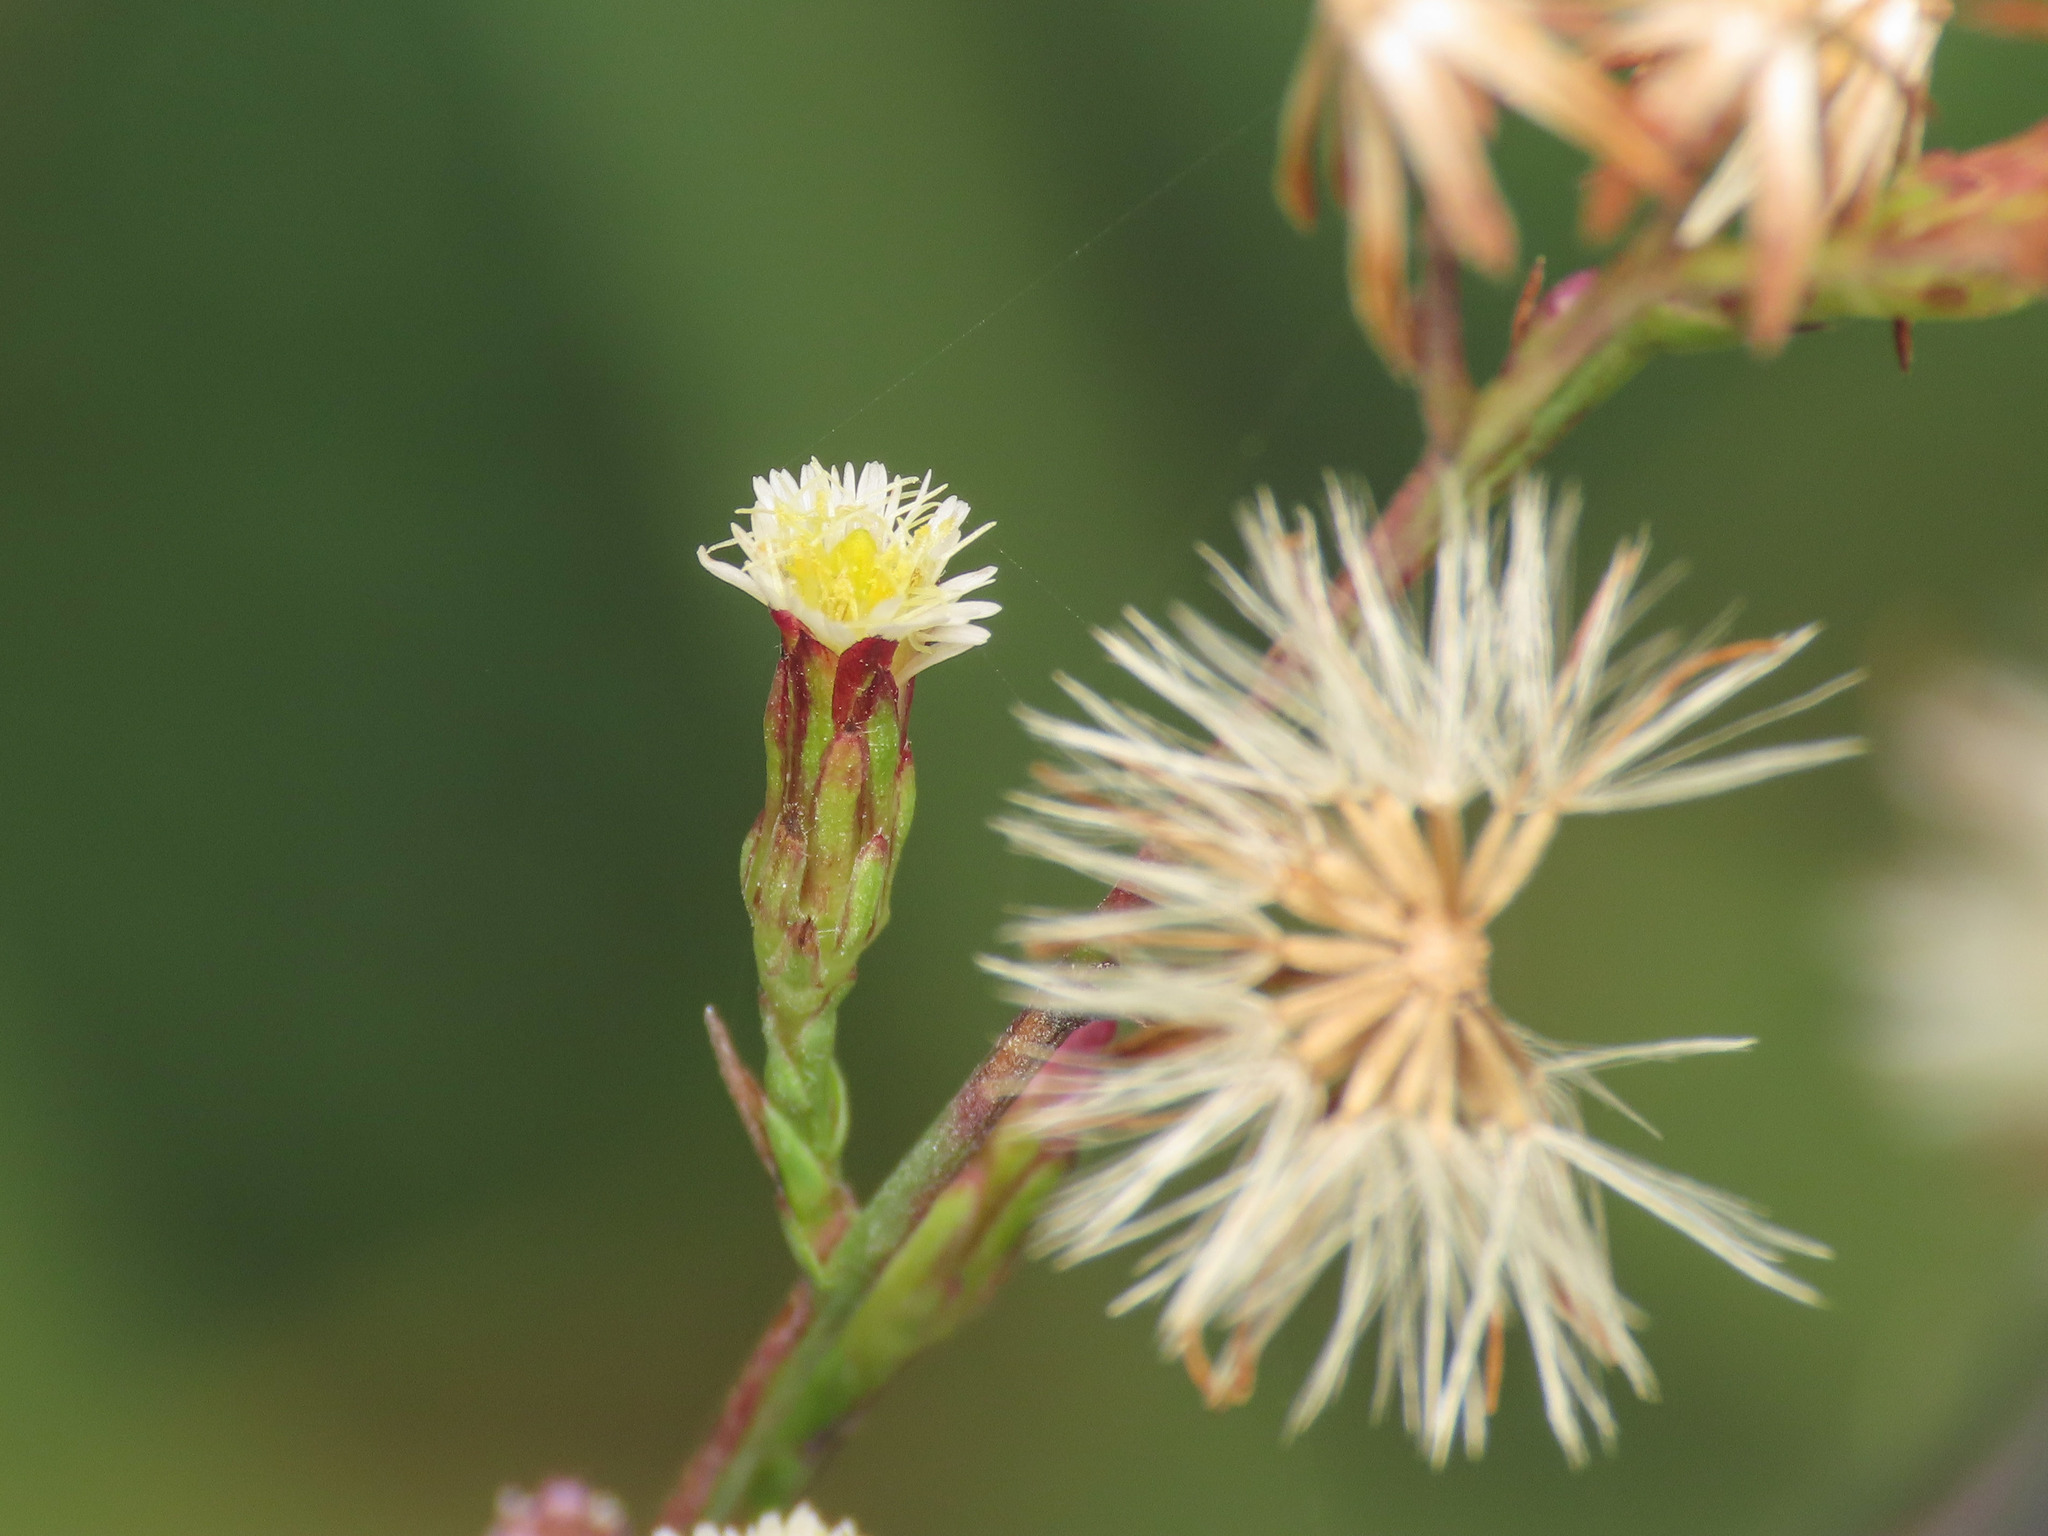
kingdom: Plantae
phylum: Tracheophyta
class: Magnoliopsida
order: Asterales
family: Asteraceae
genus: Symphyotrichum
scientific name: Symphyotrichum squamatum
